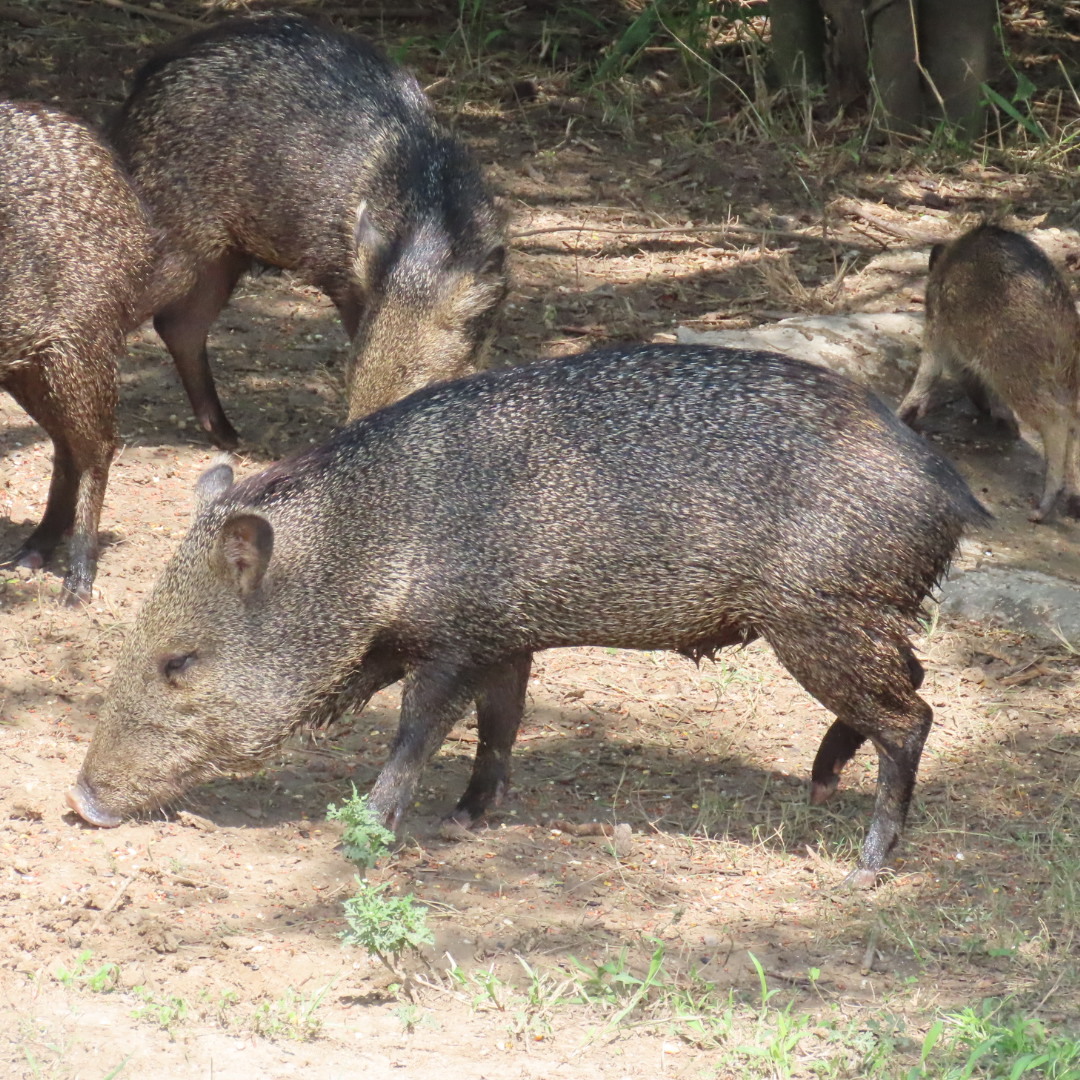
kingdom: Animalia
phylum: Chordata
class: Mammalia
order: Artiodactyla
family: Tayassuidae
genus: Pecari
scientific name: Pecari tajacu
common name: Collared peccary
